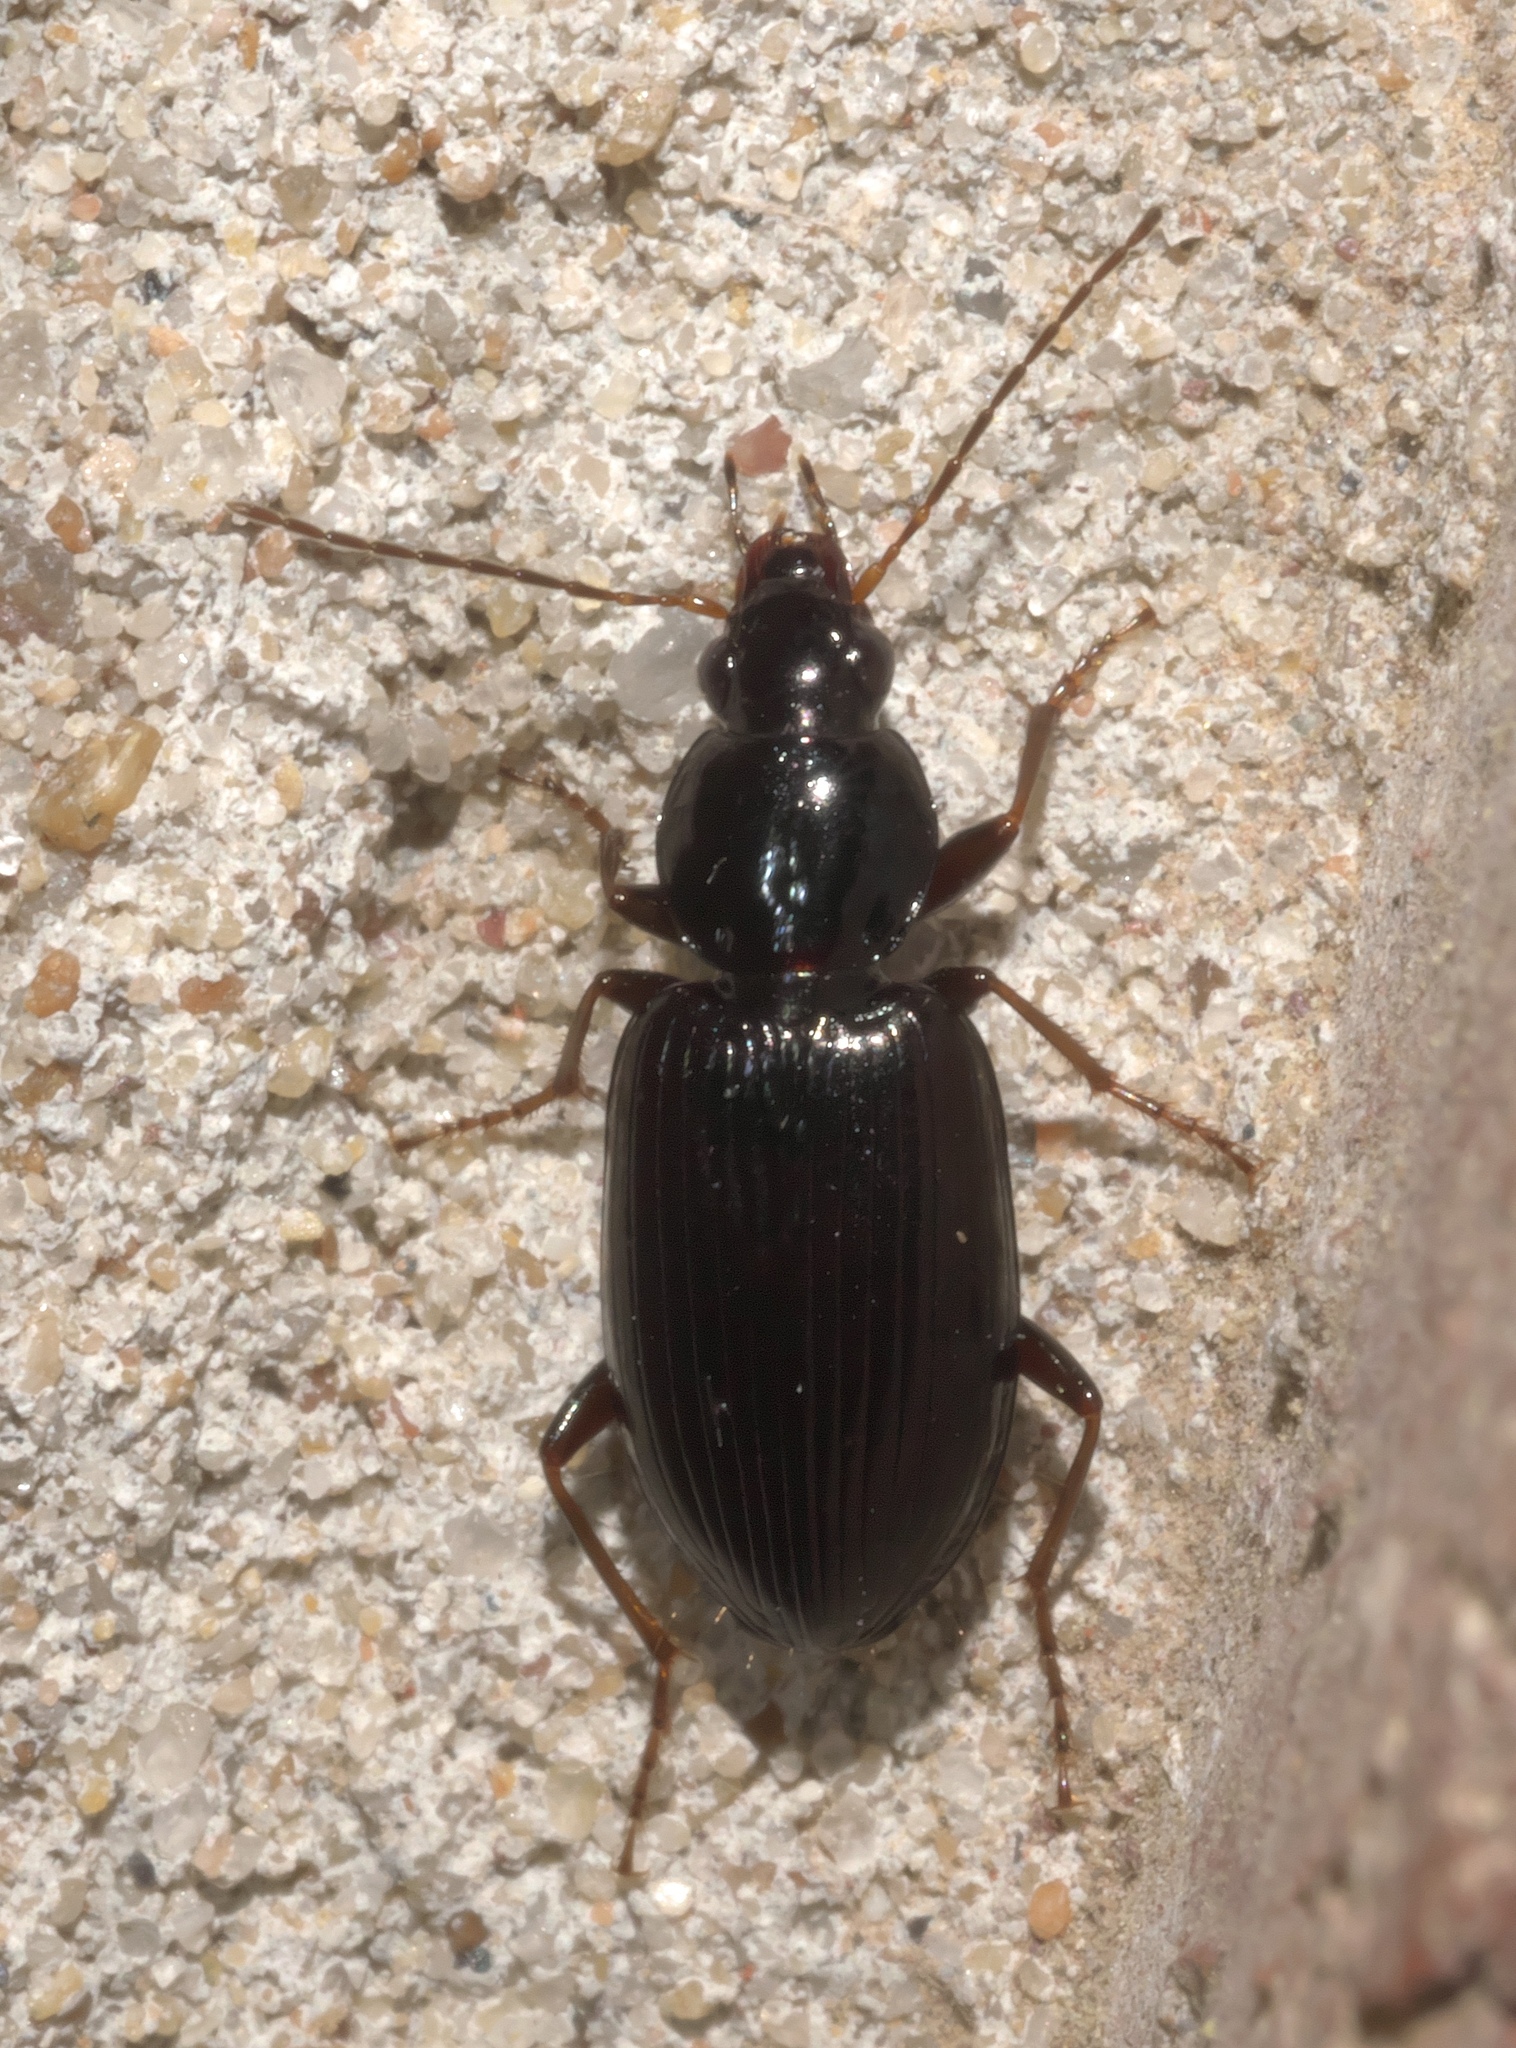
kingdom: Animalia
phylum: Arthropoda
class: Insecta
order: Coleoptera
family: Carabidae
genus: Agonum
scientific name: Agonum punctiforme
